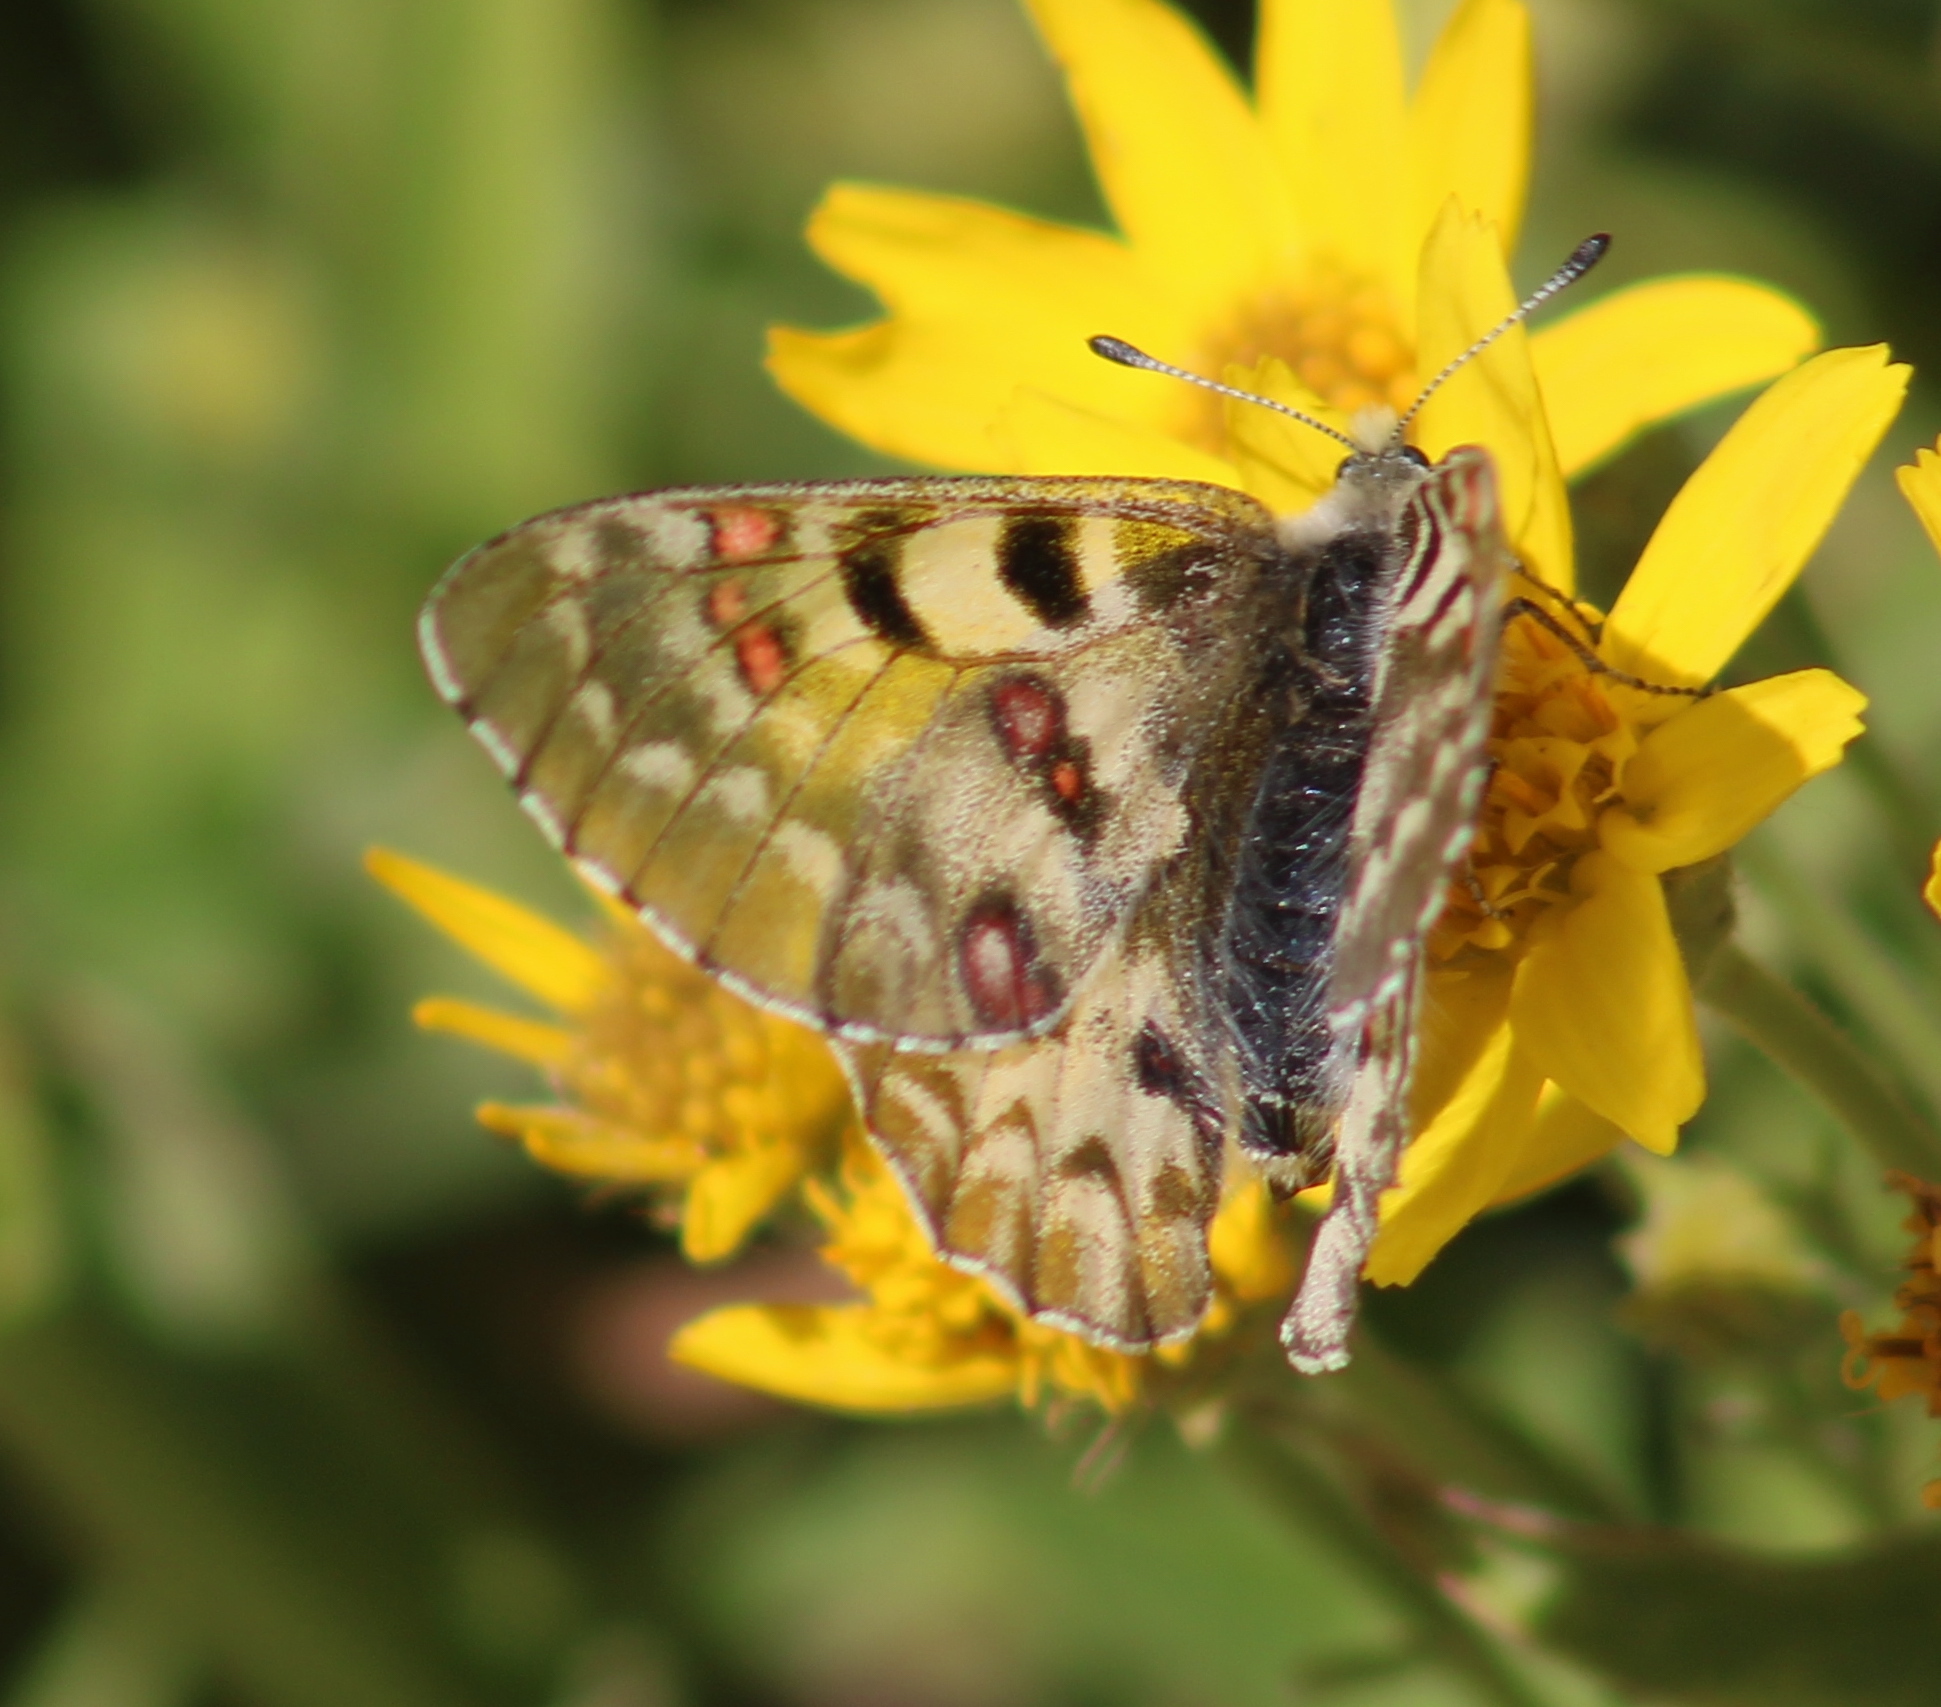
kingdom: Animalia
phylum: Arthropoda
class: Insecta
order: Lepidoptera
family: Papilionidae
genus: Parnassius
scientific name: Parnassius smintheus
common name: Mountain parnassian
